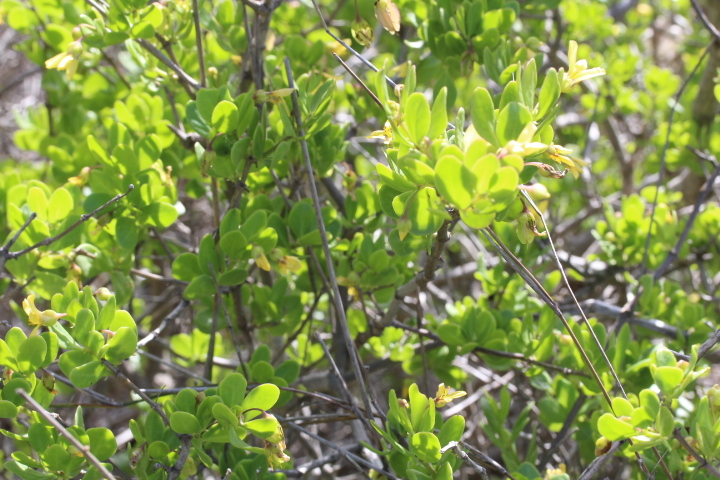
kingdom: Plantae
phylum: Tracheophyta
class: Magnoliopsida
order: Zygophyllales
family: Zygophyllaceae
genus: Roepera
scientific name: Roepera morgsana
